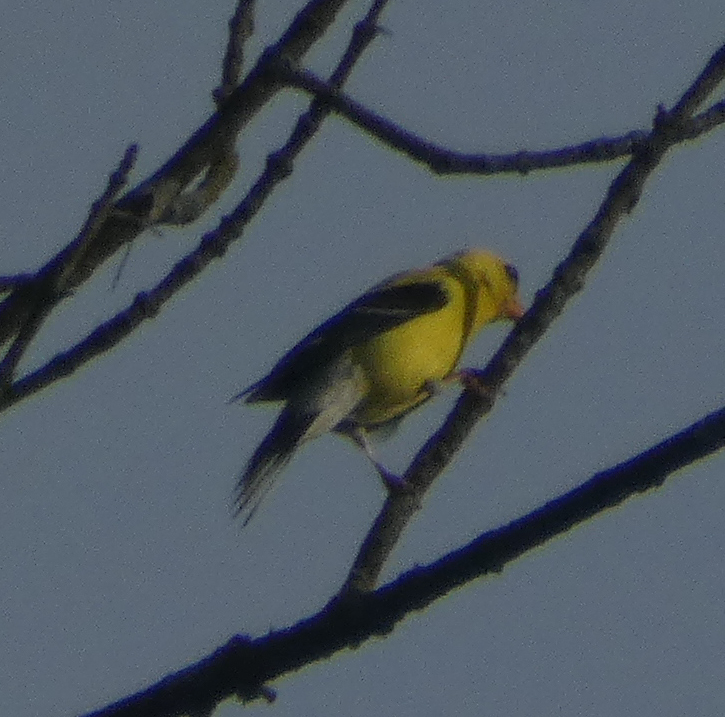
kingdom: Animalia
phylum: Chordata
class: Aves
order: Passeriformes
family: Fringillidae
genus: Spinus
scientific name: Spinus tristis
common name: American goldfinch
